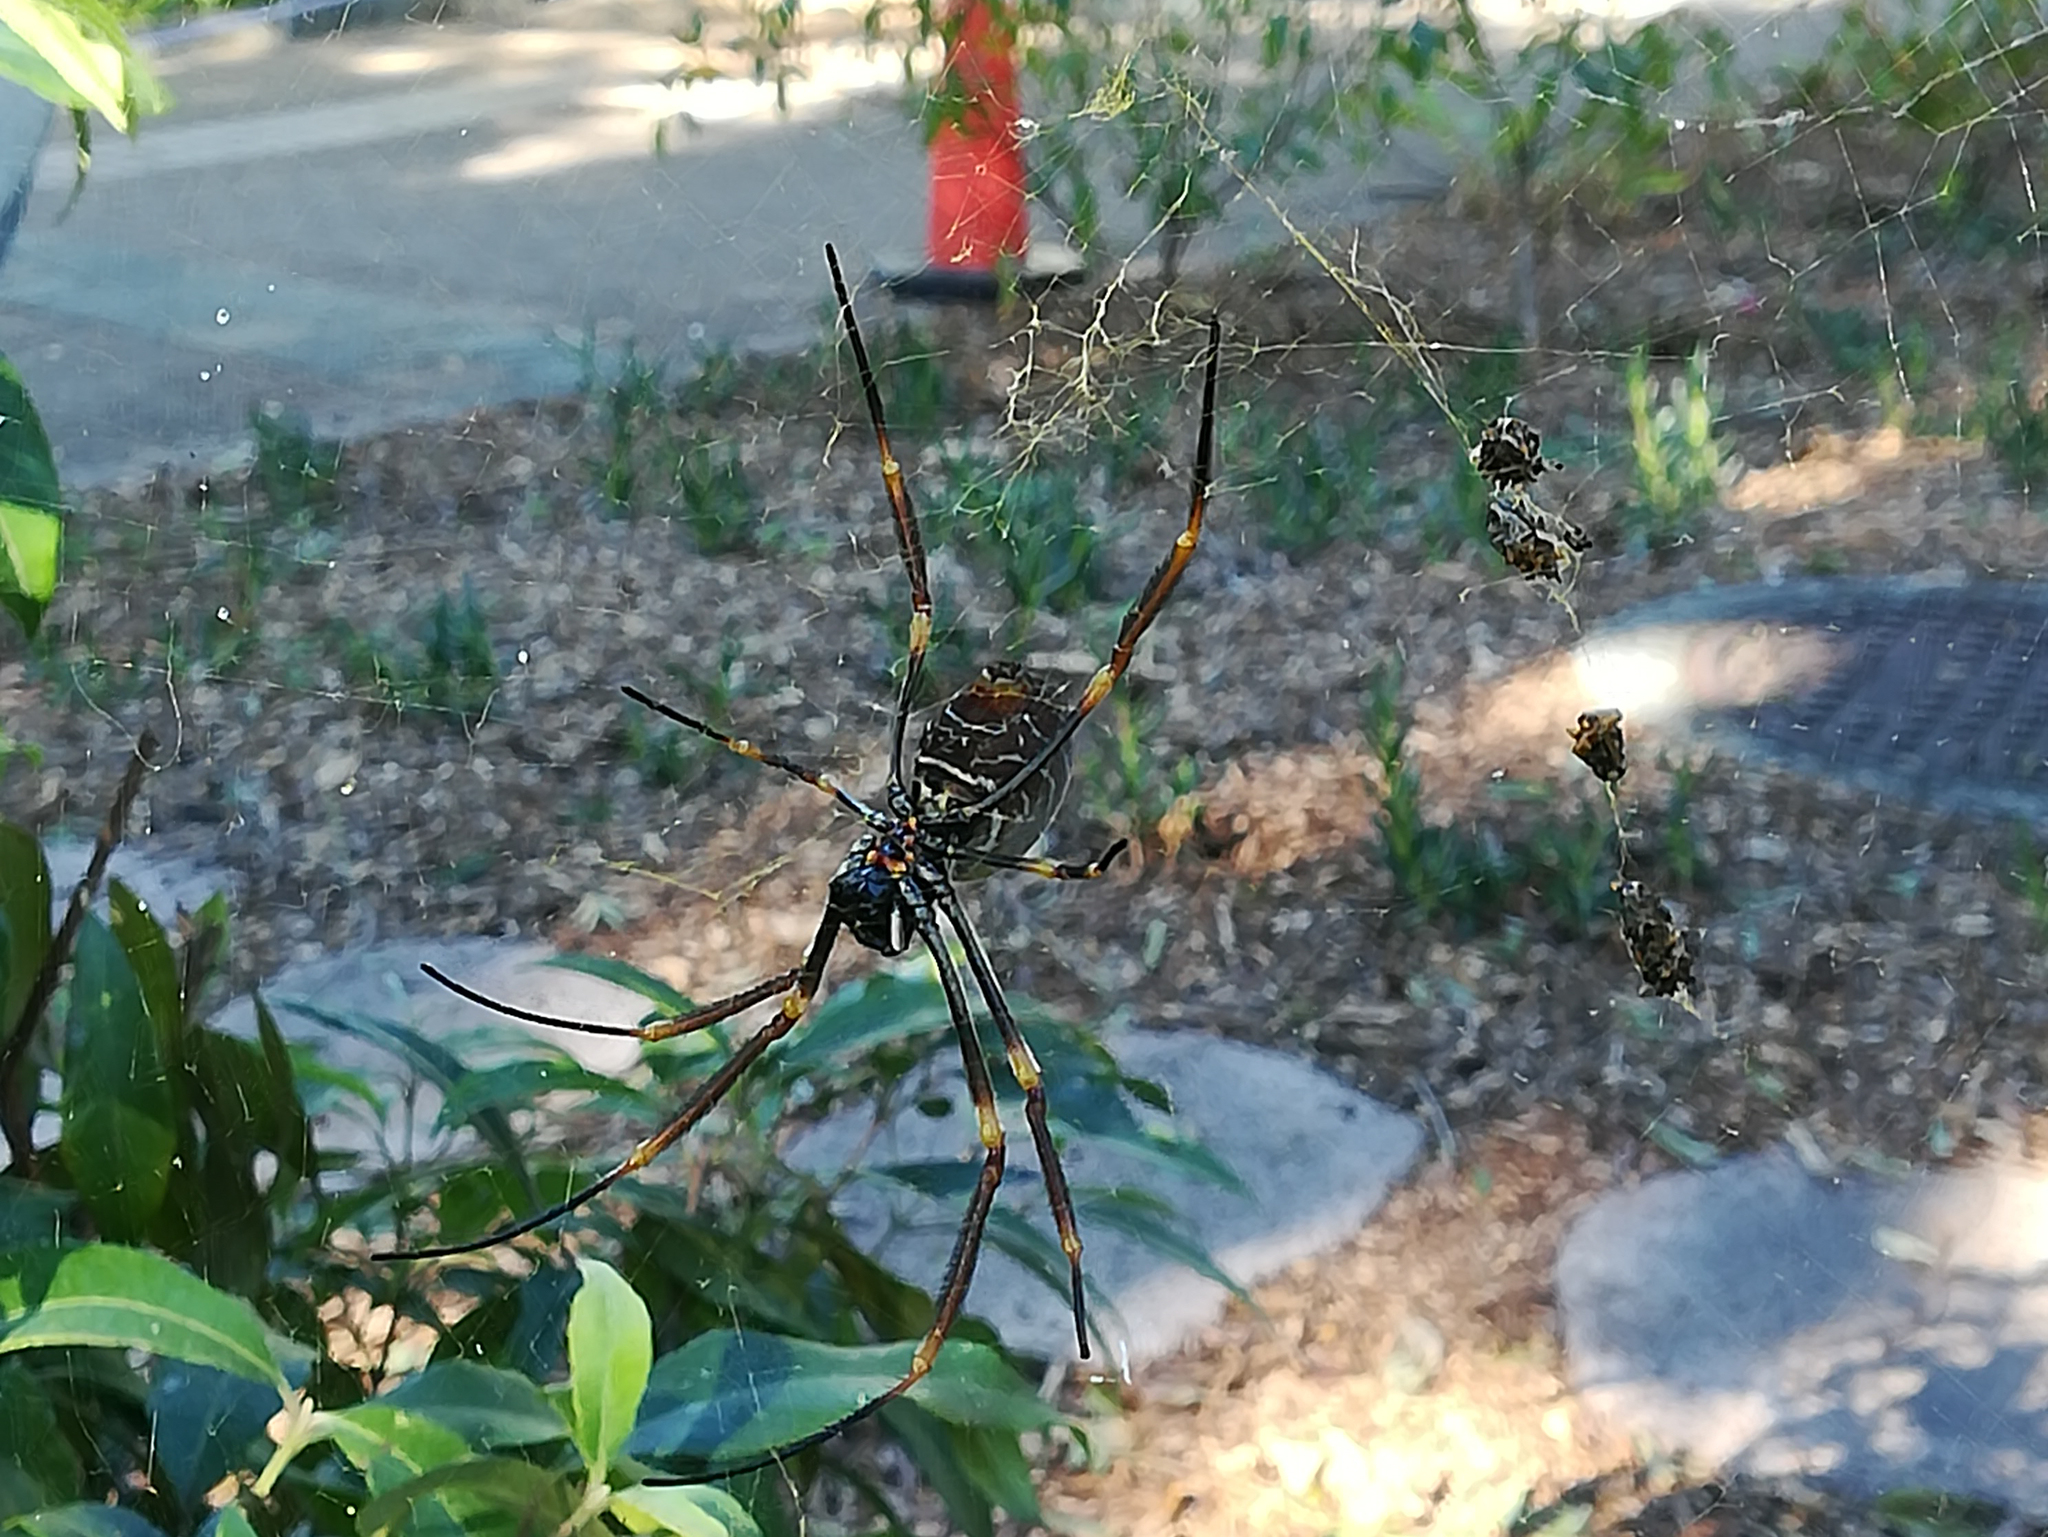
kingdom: Animalia
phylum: Arthropoda
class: Arachnida
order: Araneae
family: Araneidae
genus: Trichonephila
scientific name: Trichonephila plumipes
